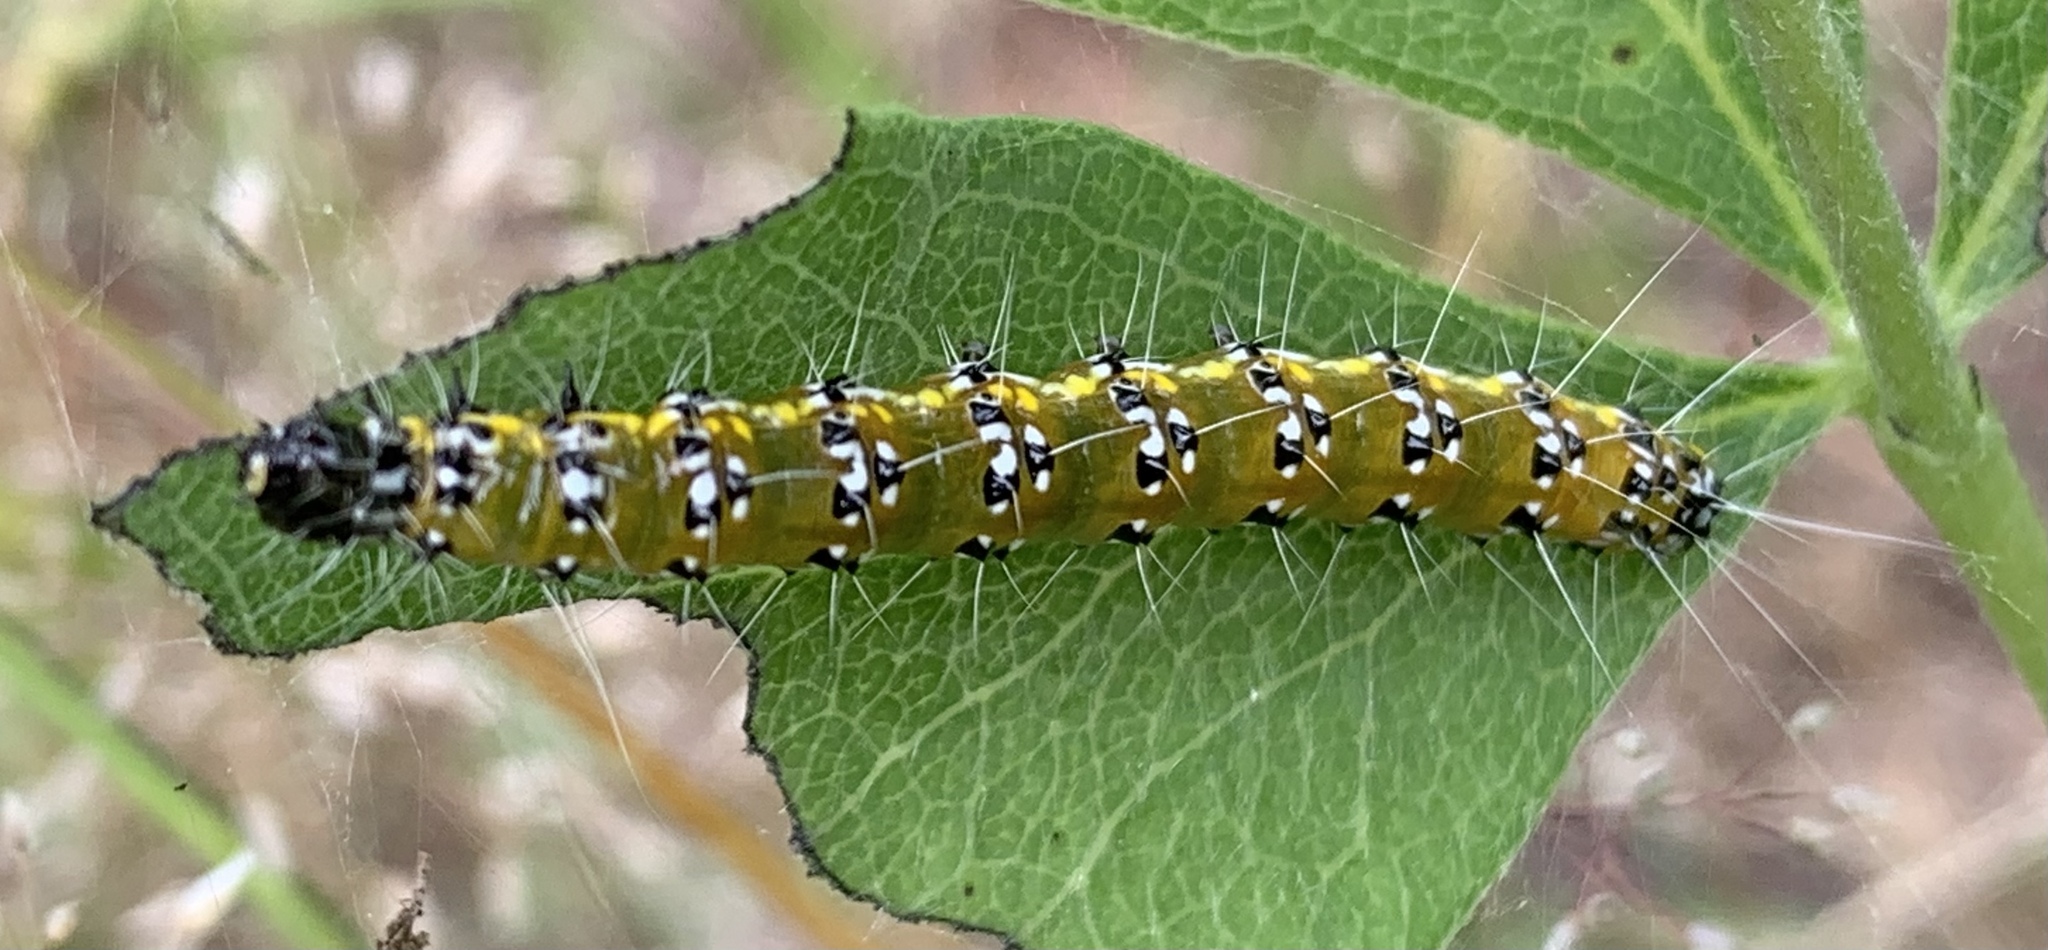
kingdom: Animalia
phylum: Arthropoda
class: Insecta
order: Lepidoptera
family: Crambidae
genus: Uresiphita
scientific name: Uresiphita reversalis
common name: Genista broom moth
